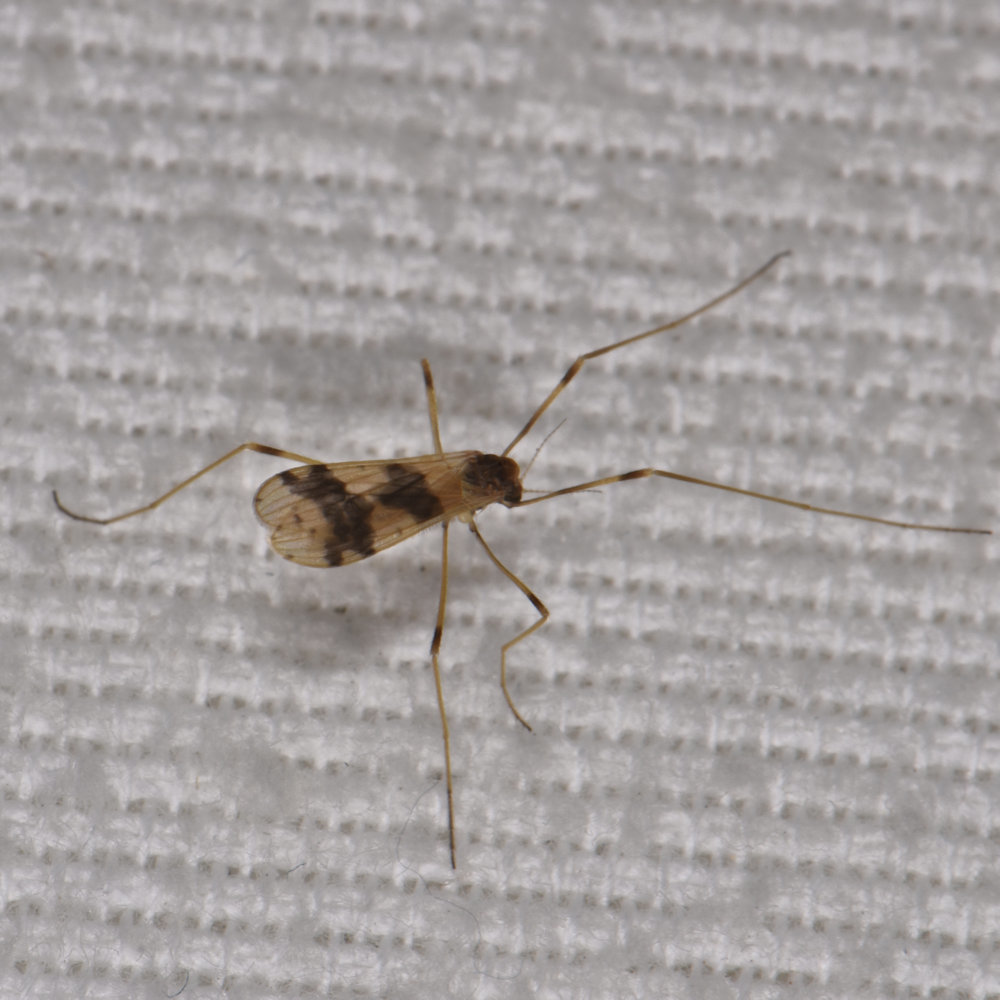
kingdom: Animalia
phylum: Arthropoda
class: Insecta
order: Diptera
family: Limoniidae
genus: Ilisia
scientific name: Ilisia venusta
